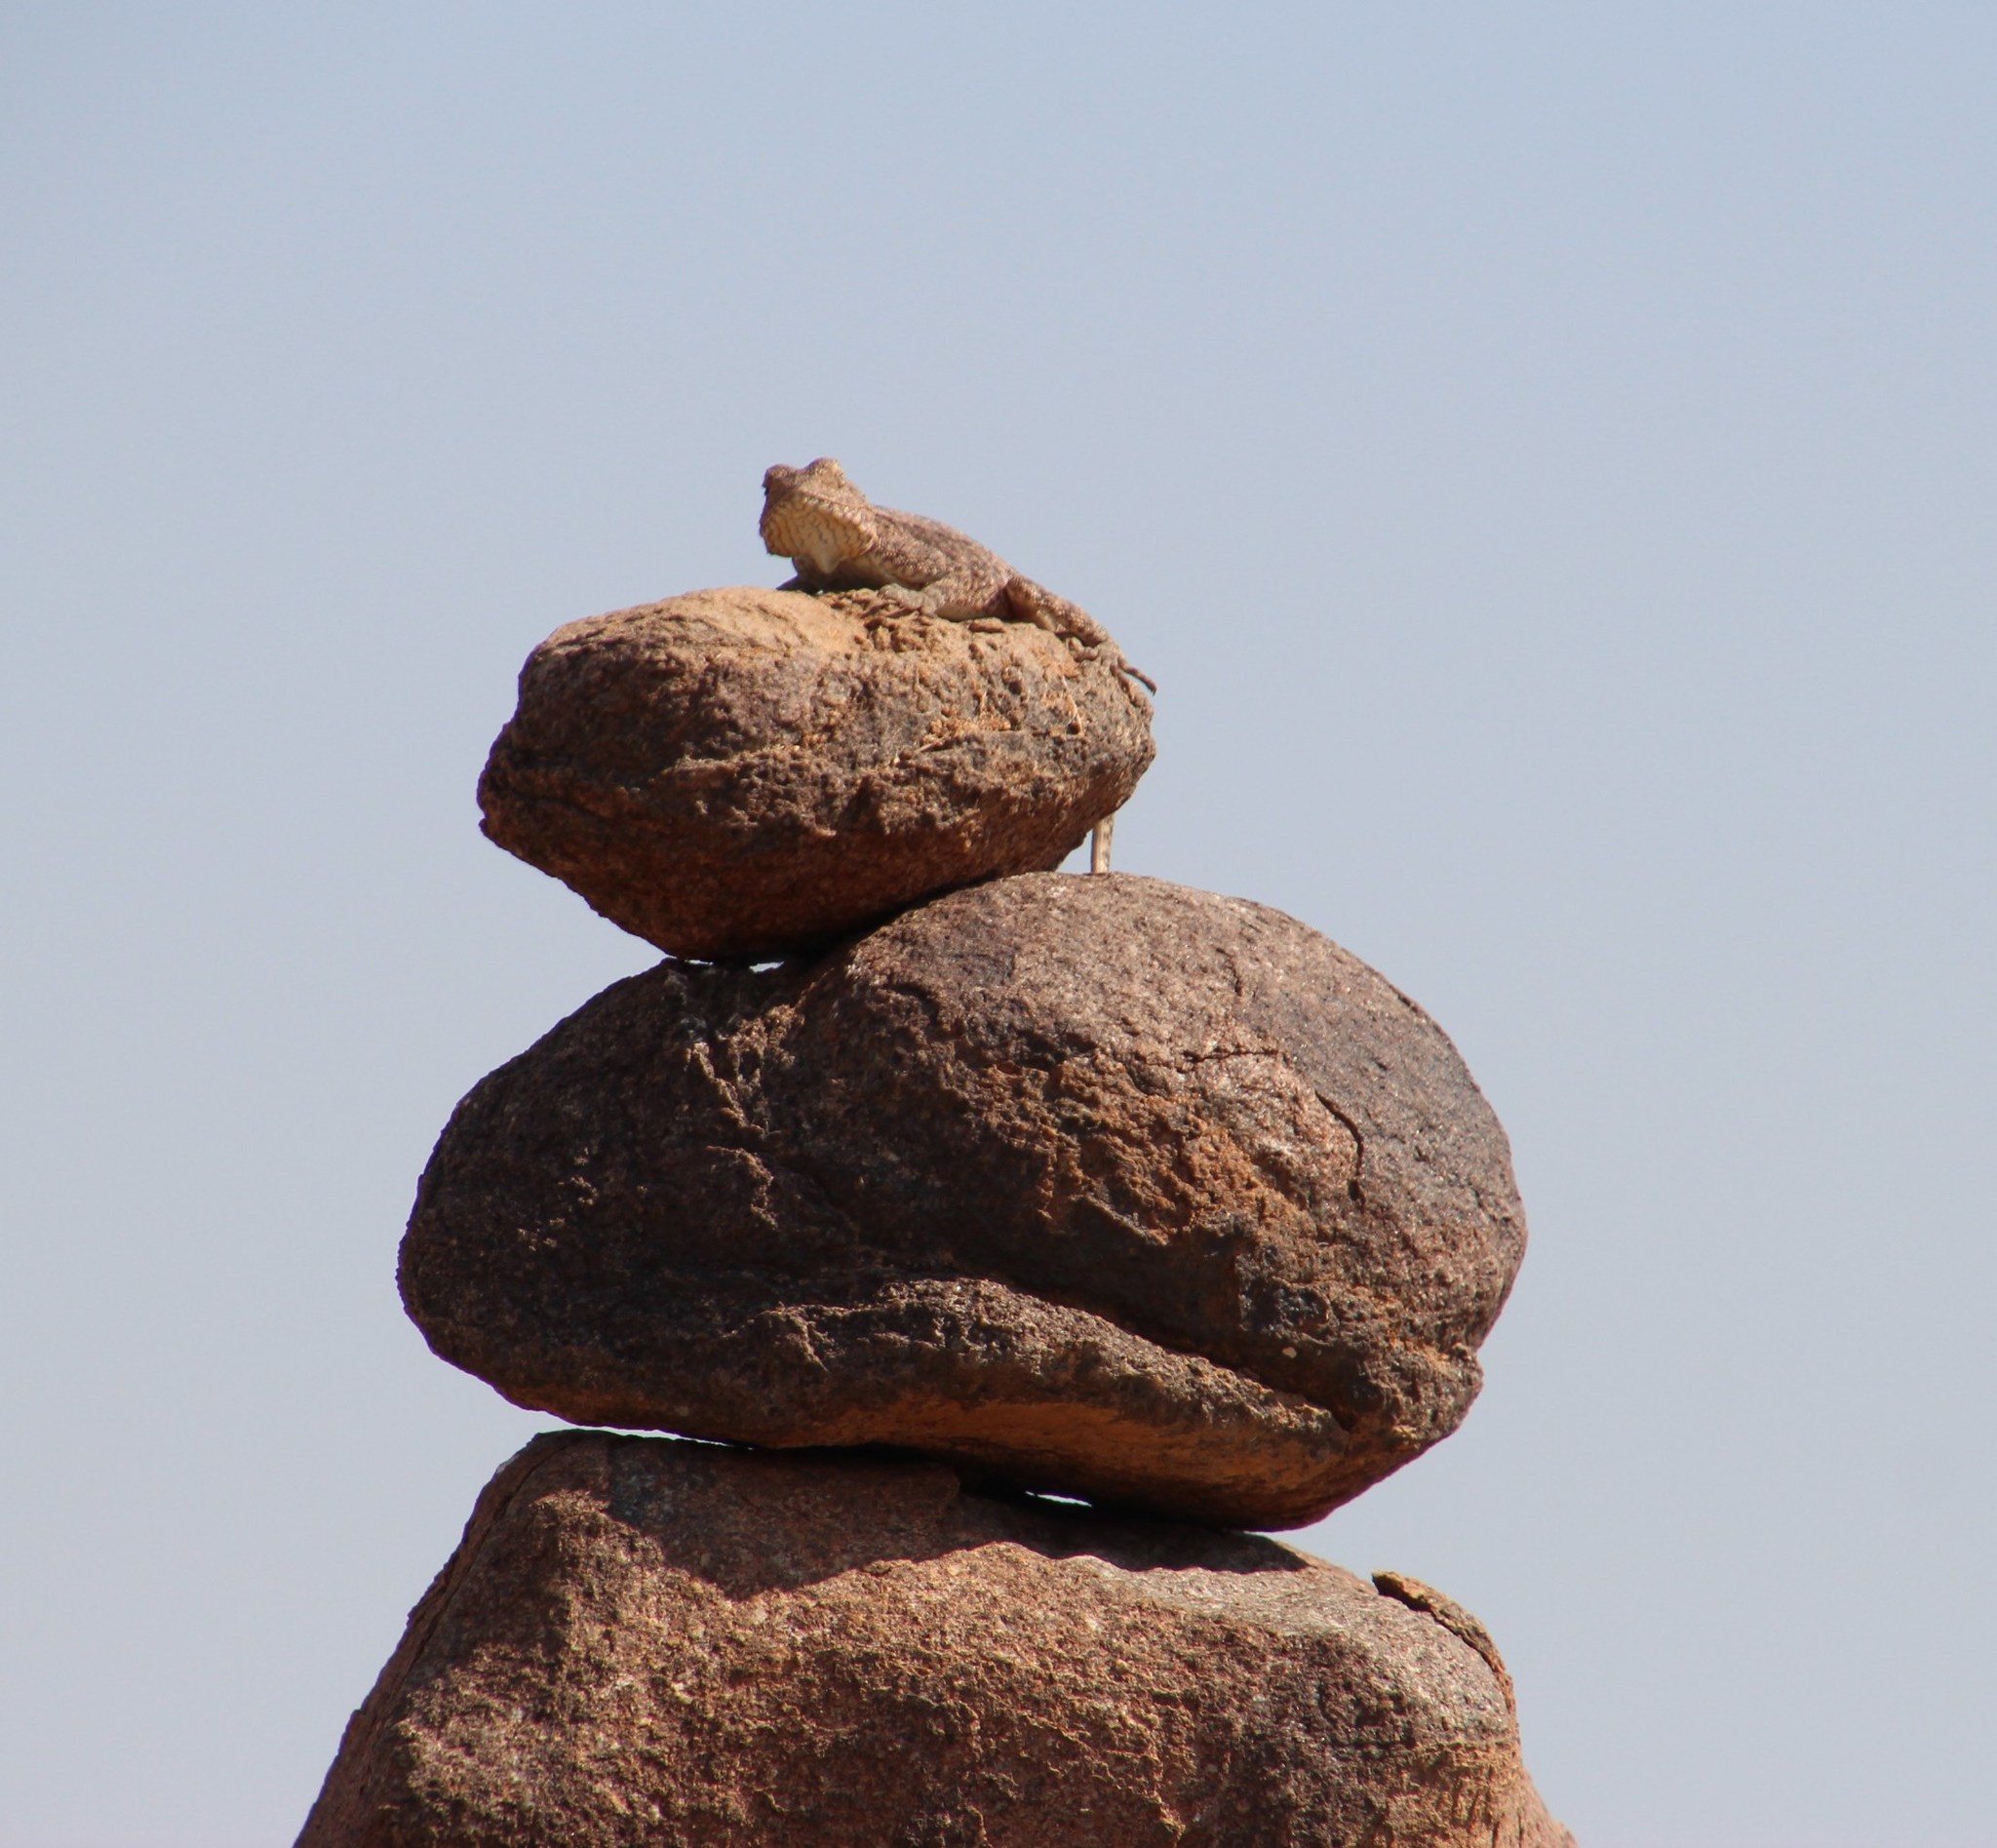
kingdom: Animalia
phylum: Chordata
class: Squamata
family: Agamidae
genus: Agama
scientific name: Agama atra
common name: Southern african rock agama
